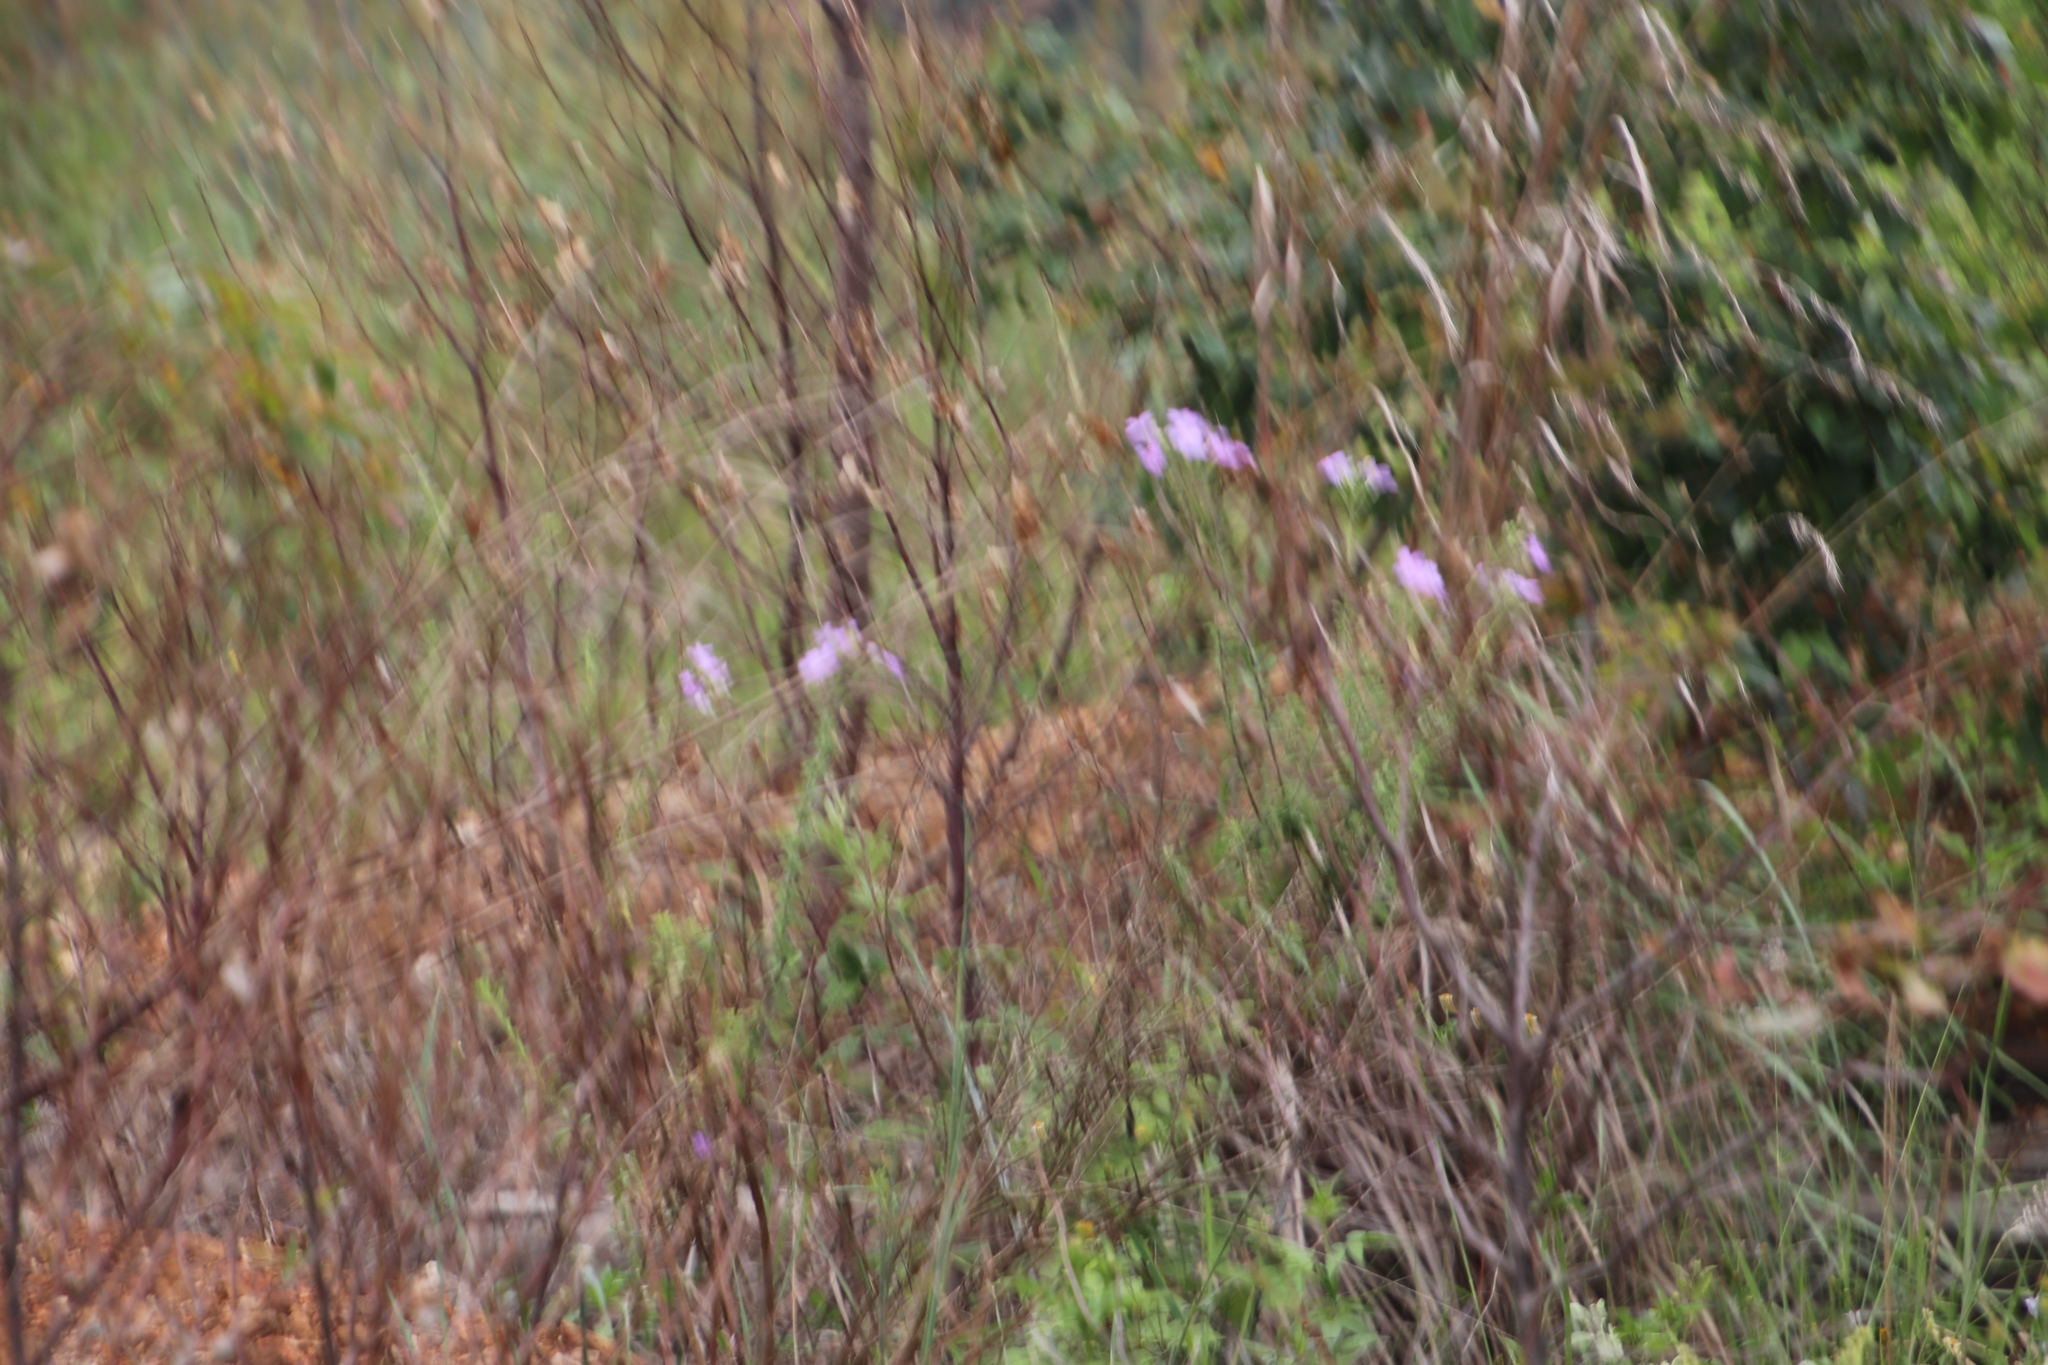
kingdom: Plantae
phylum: Tracheophyta
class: Magnoliopsida
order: Lamiales
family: Scrophulariaceae
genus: Jamesbrittenia
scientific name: Jamesbrittenia grandiflora
